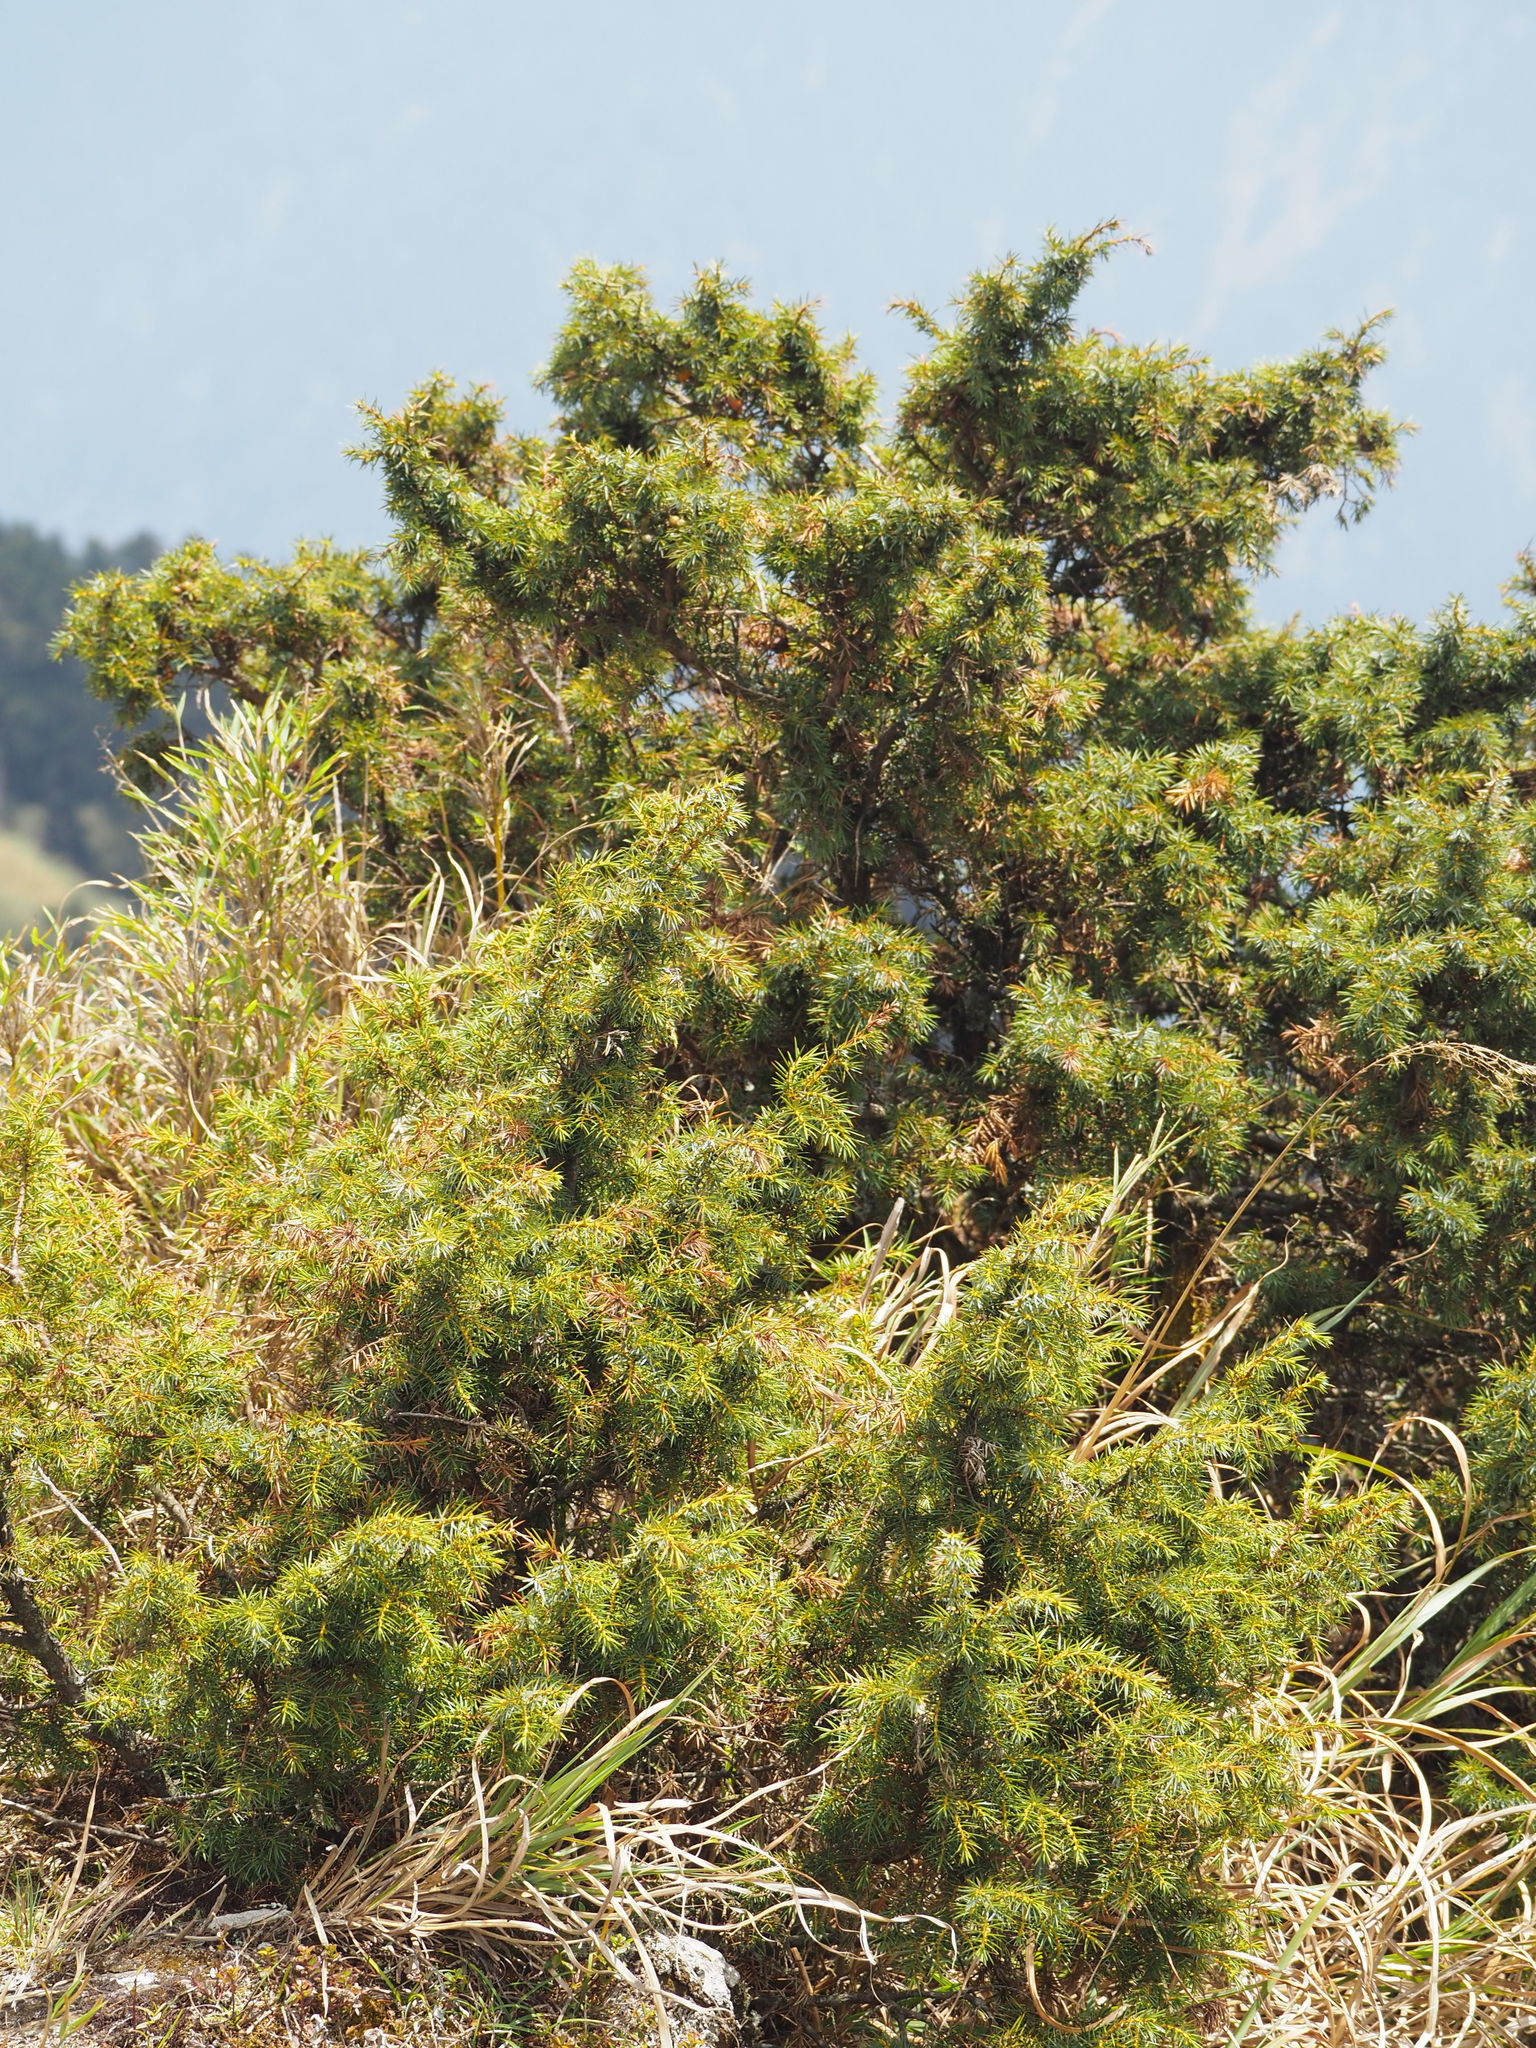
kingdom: Plantae
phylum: Tracheophyta
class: Pinopsida
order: Pinales
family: Cupressaceae
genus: Juniperus
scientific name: Juniperus formosana
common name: Formosan juniper
